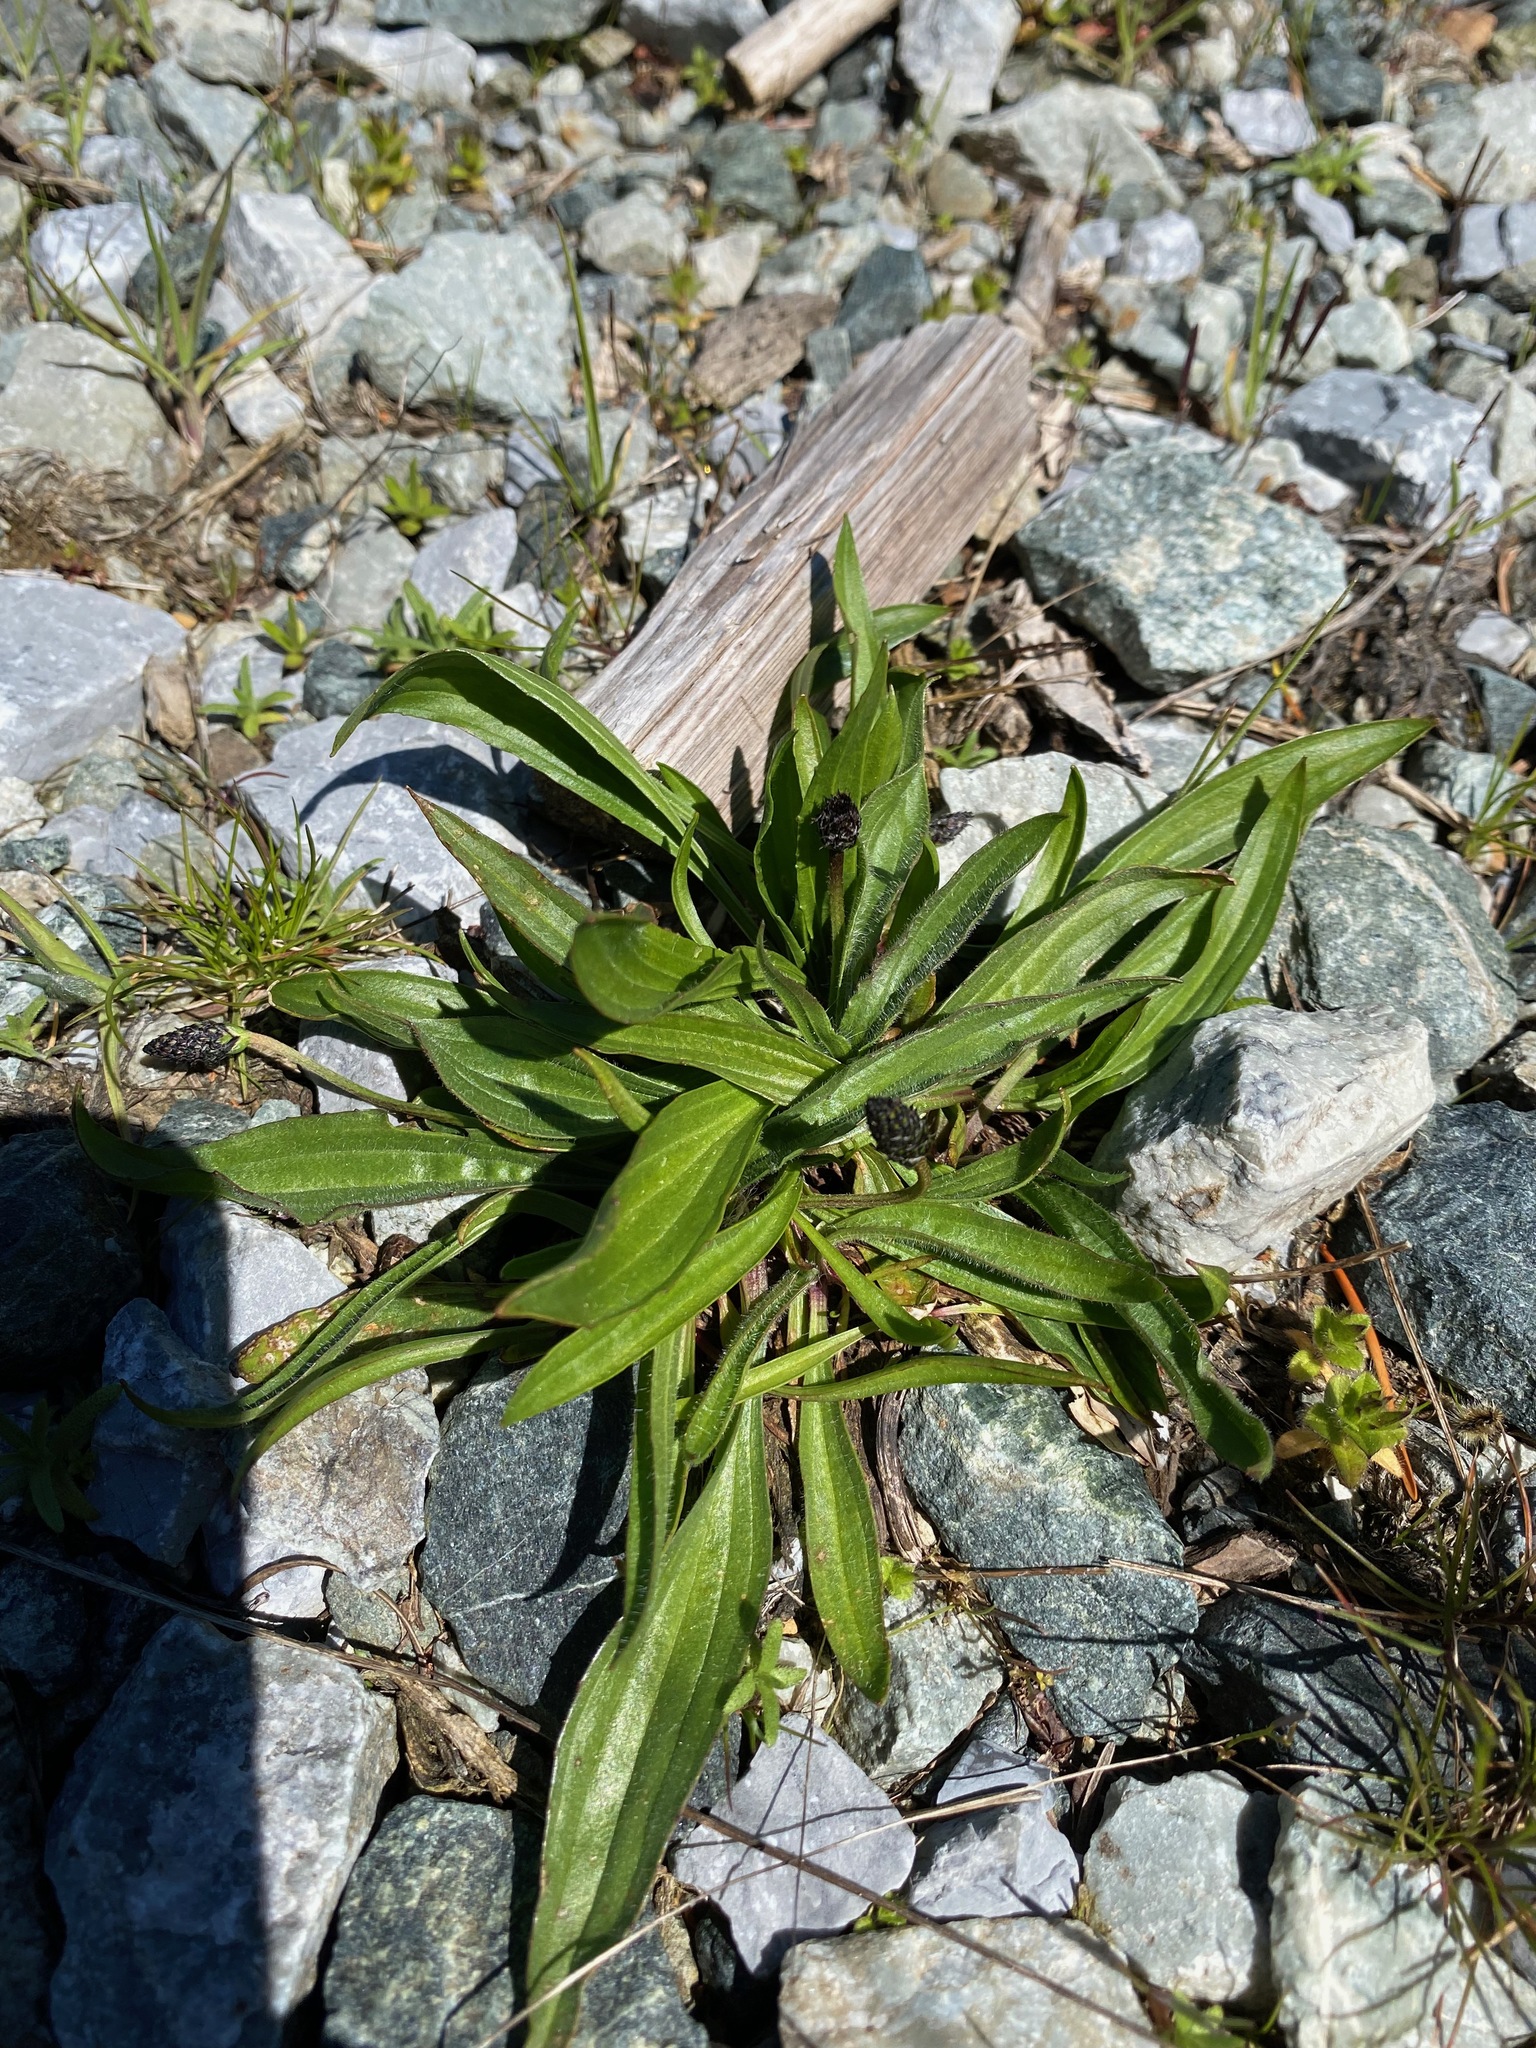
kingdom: Plantae
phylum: Tracheophyta
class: Magnoliopsida
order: Lamiales
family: Plantaginaceae
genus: Plantago
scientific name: Plantago lanceolata
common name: Ribwort plantain
